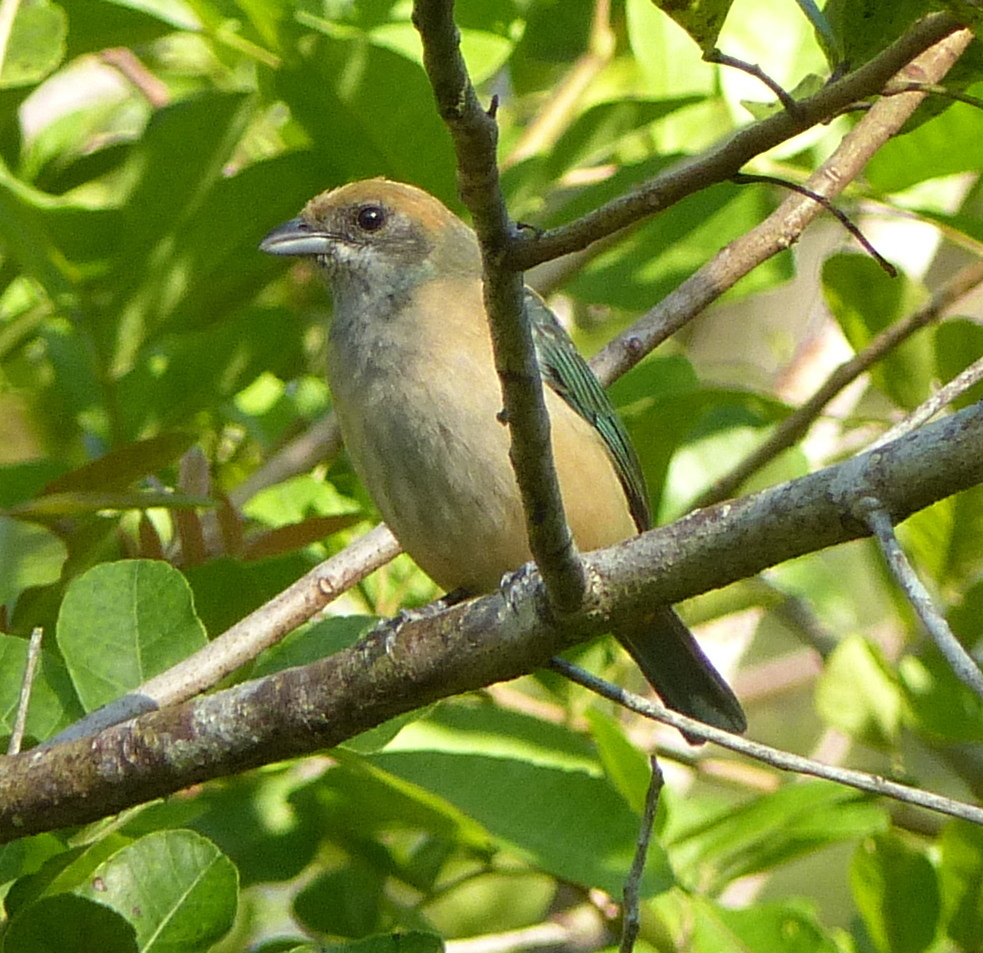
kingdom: Animalia
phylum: Chordata
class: Aves
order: Passeriformes
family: Thraupidae
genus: Stilpnia
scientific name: Stilpnia cayana
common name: Burnished-buff tanager
